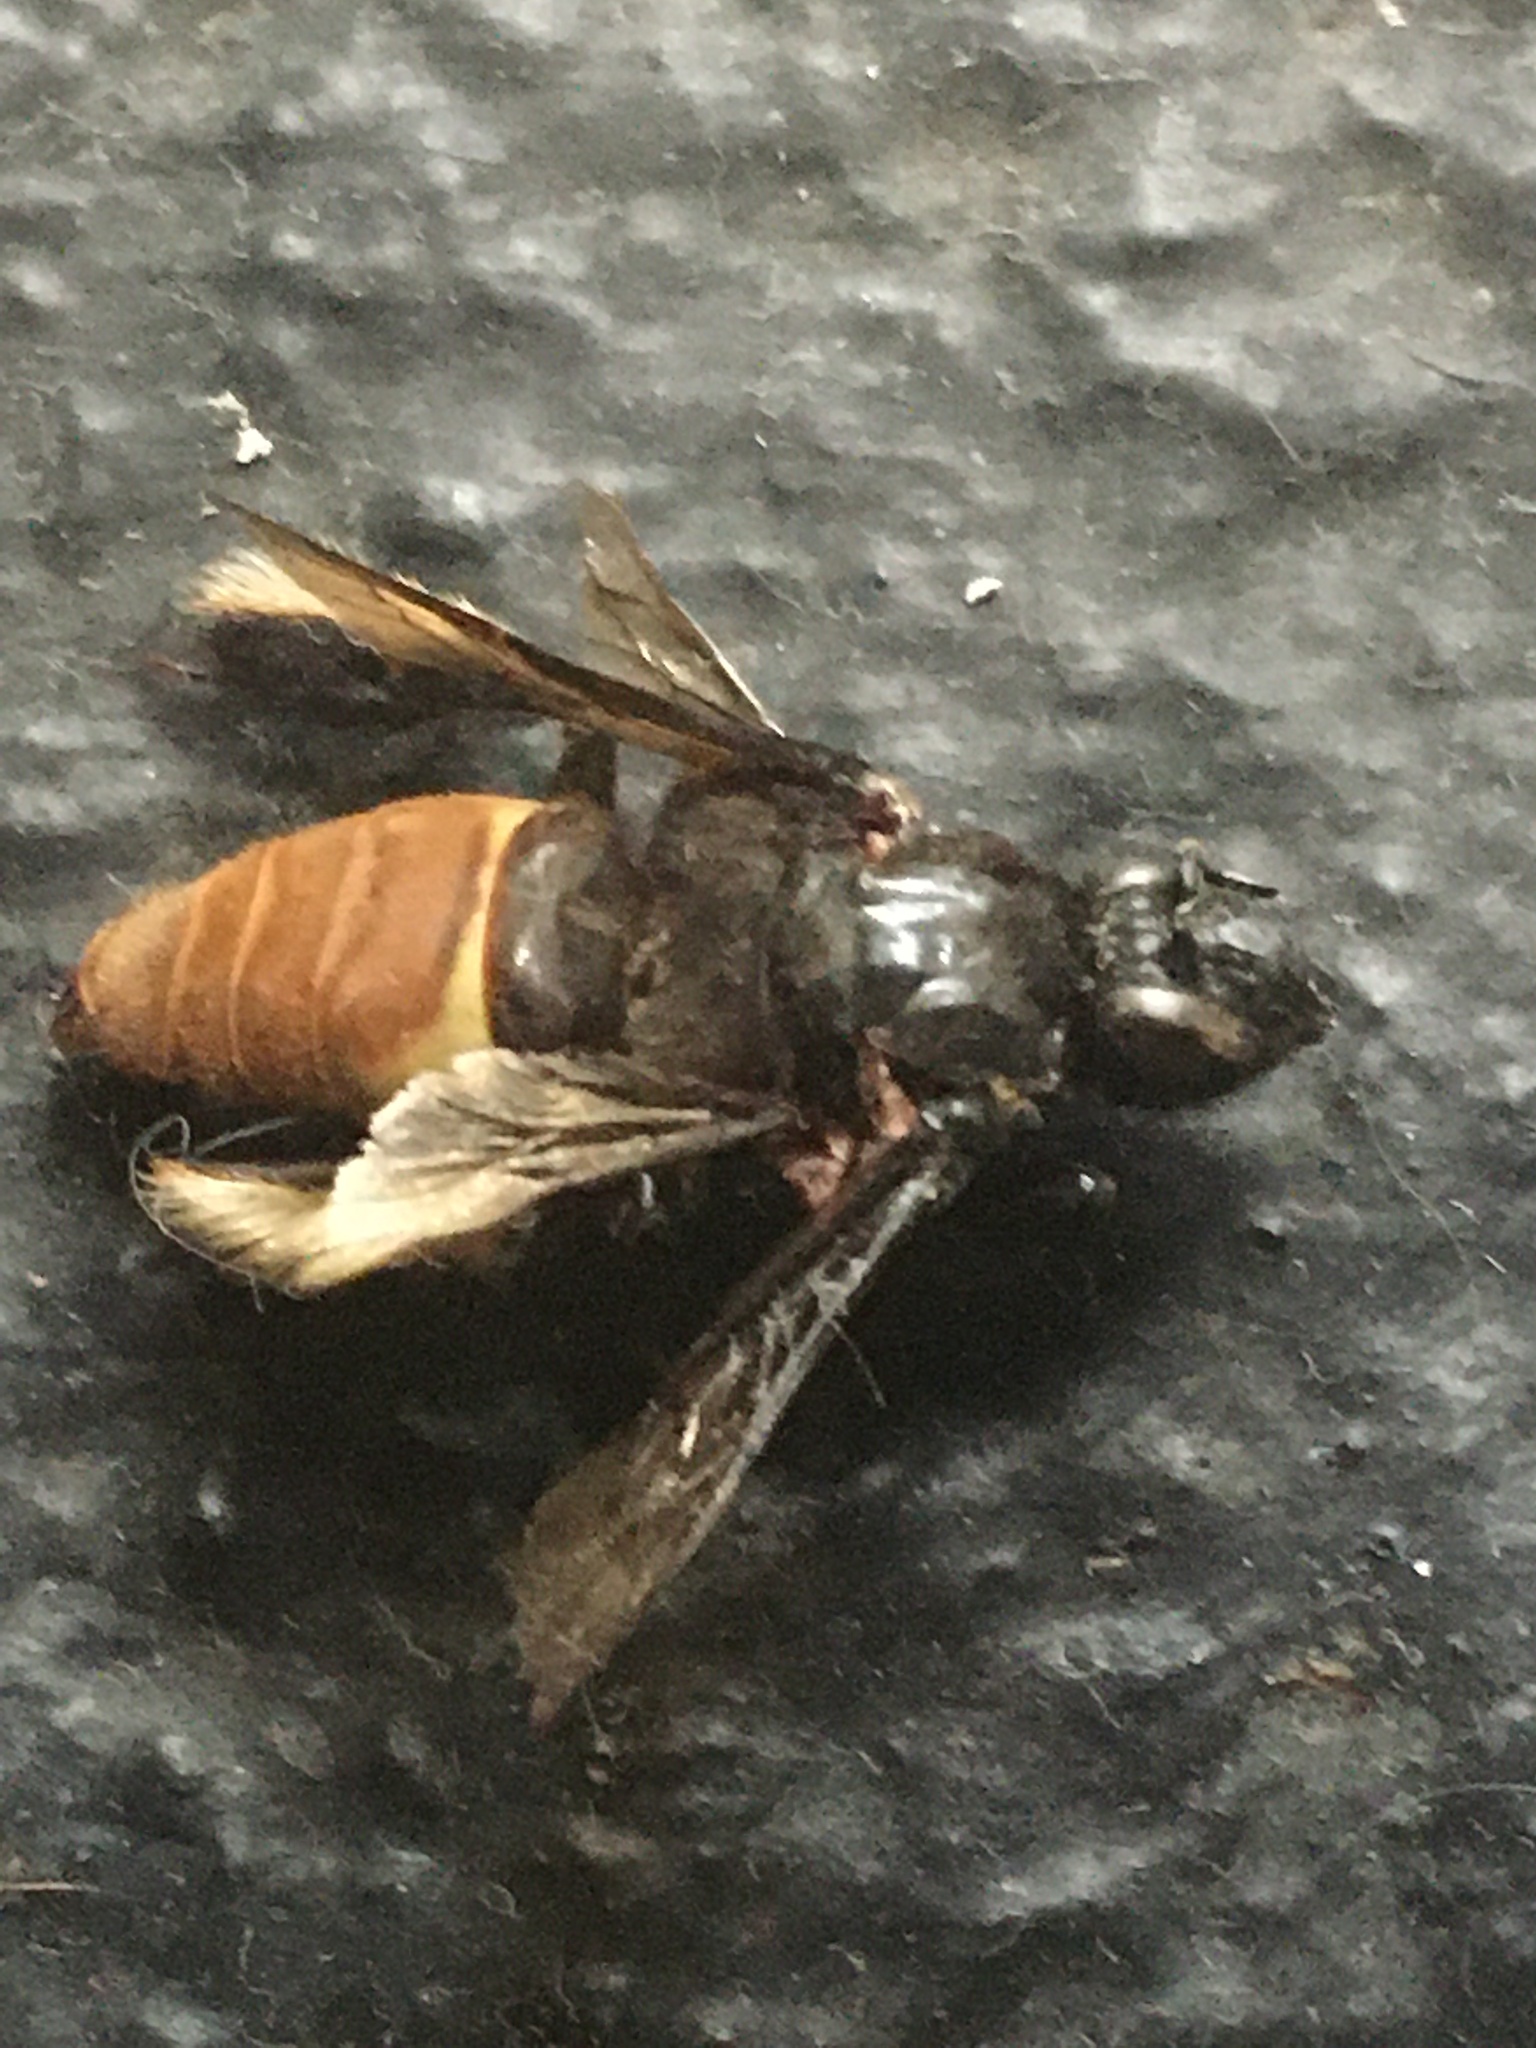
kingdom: Animalia
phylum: Arthropoda
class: Insecta
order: Hymenoptera
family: Apidae
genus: Epicharis
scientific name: Epicharis lunulata
